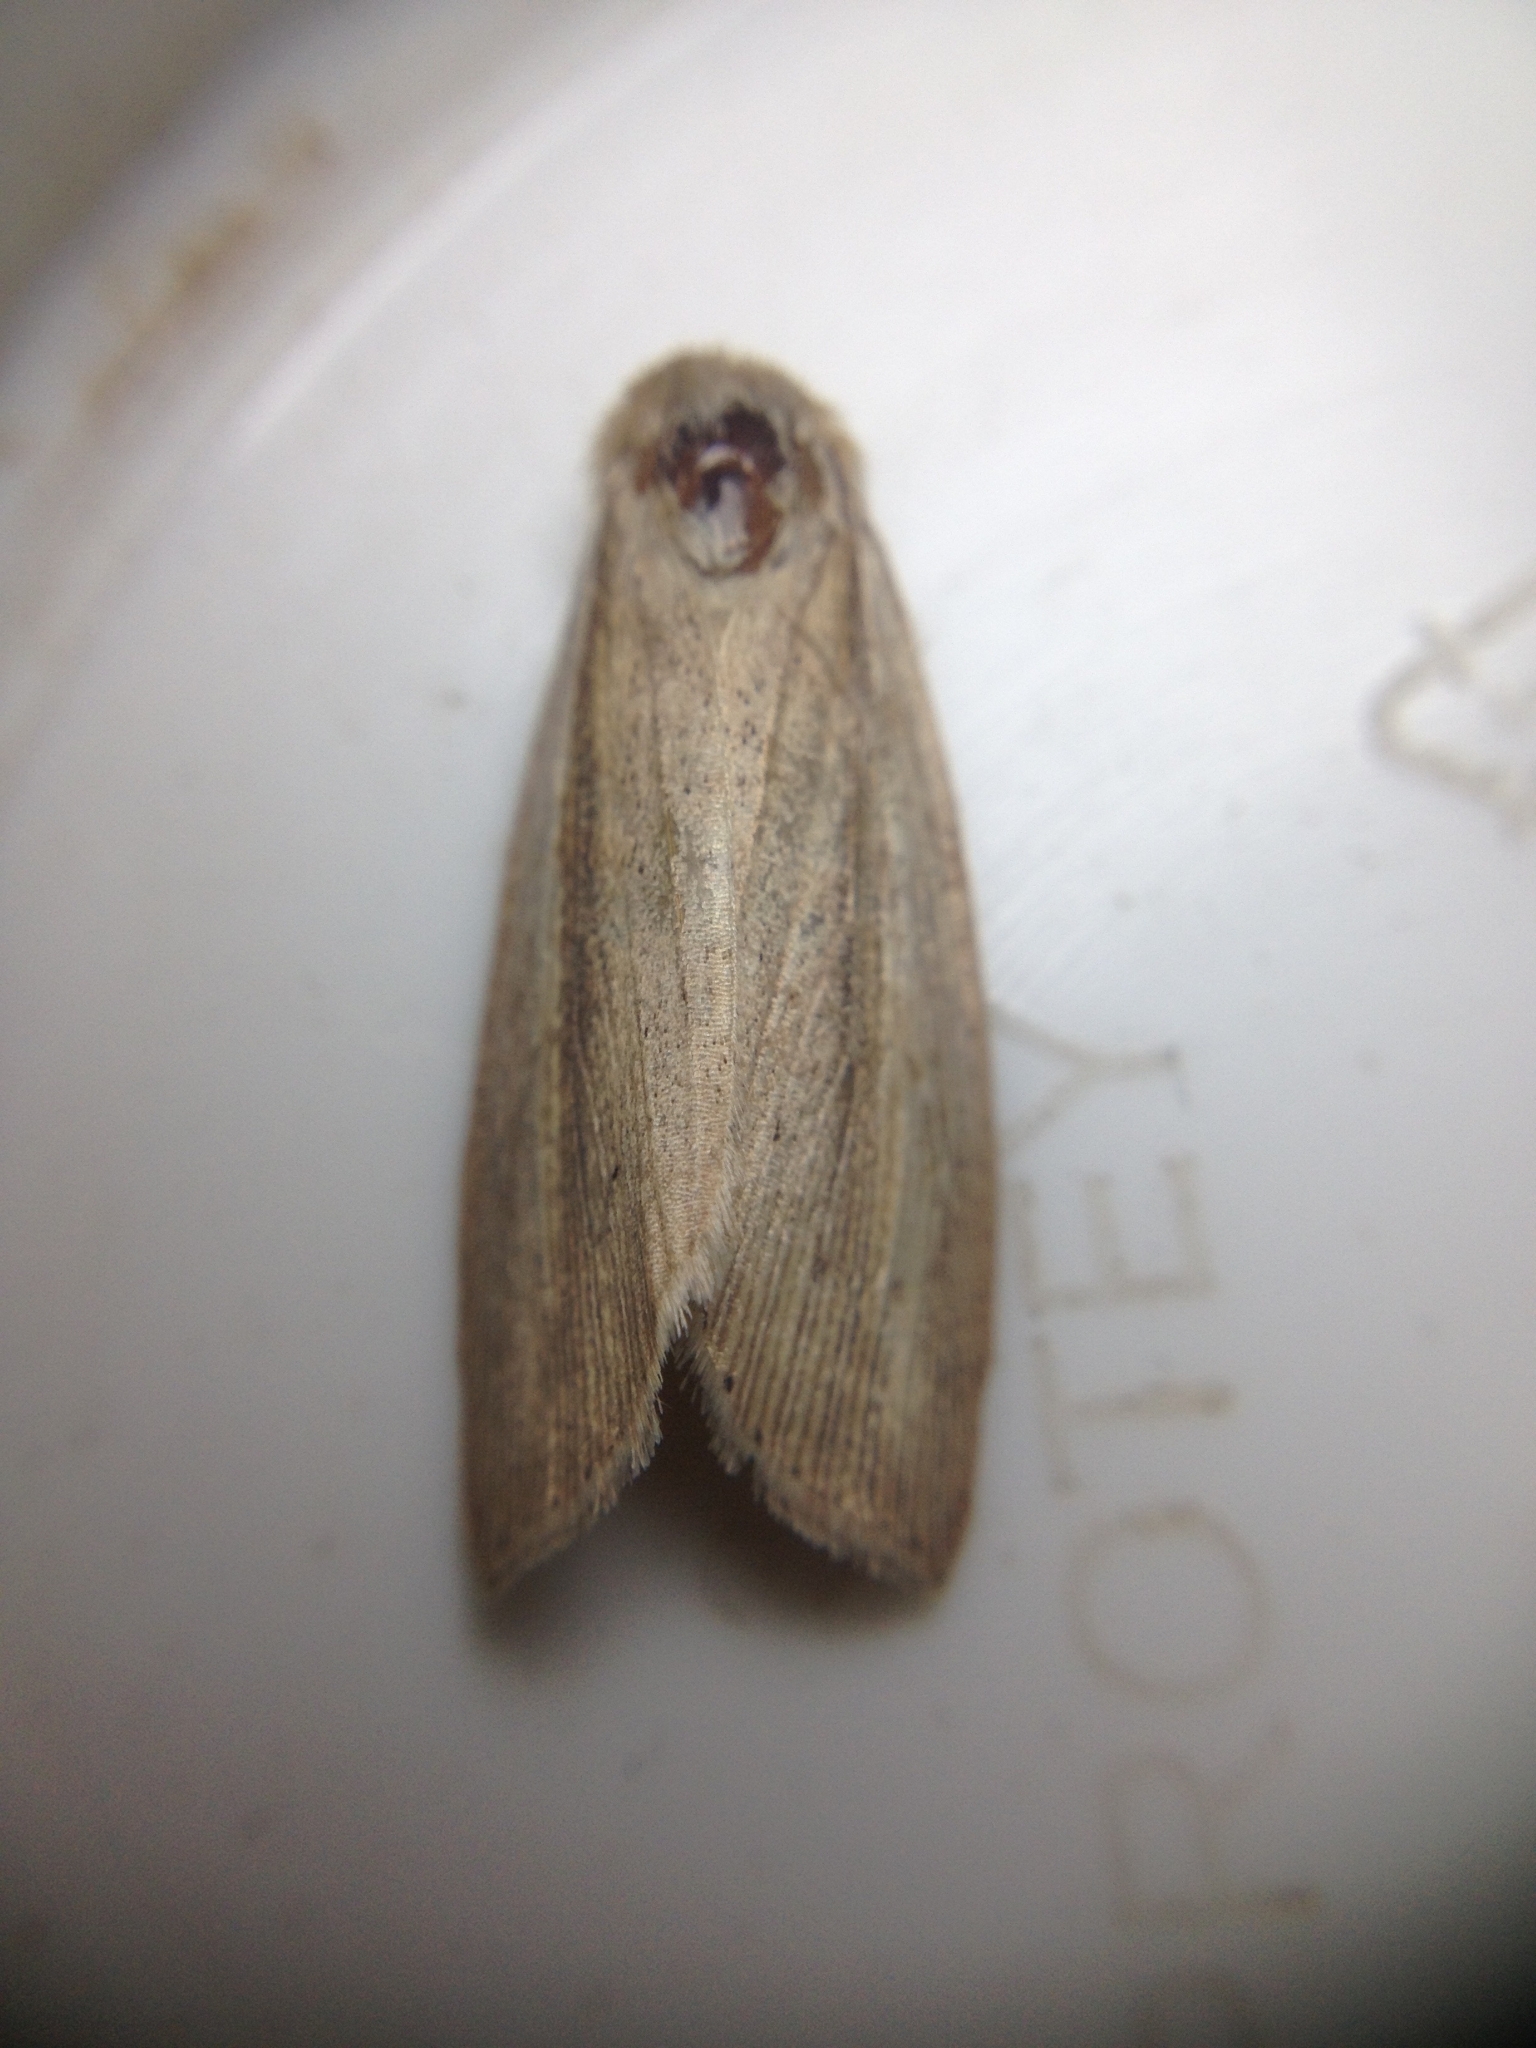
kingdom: Animalia
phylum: Arthropoda
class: Insecta
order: Lepidoptera
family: Noctuidae
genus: Senta
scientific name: Senta flammea
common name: Flame wainscot
